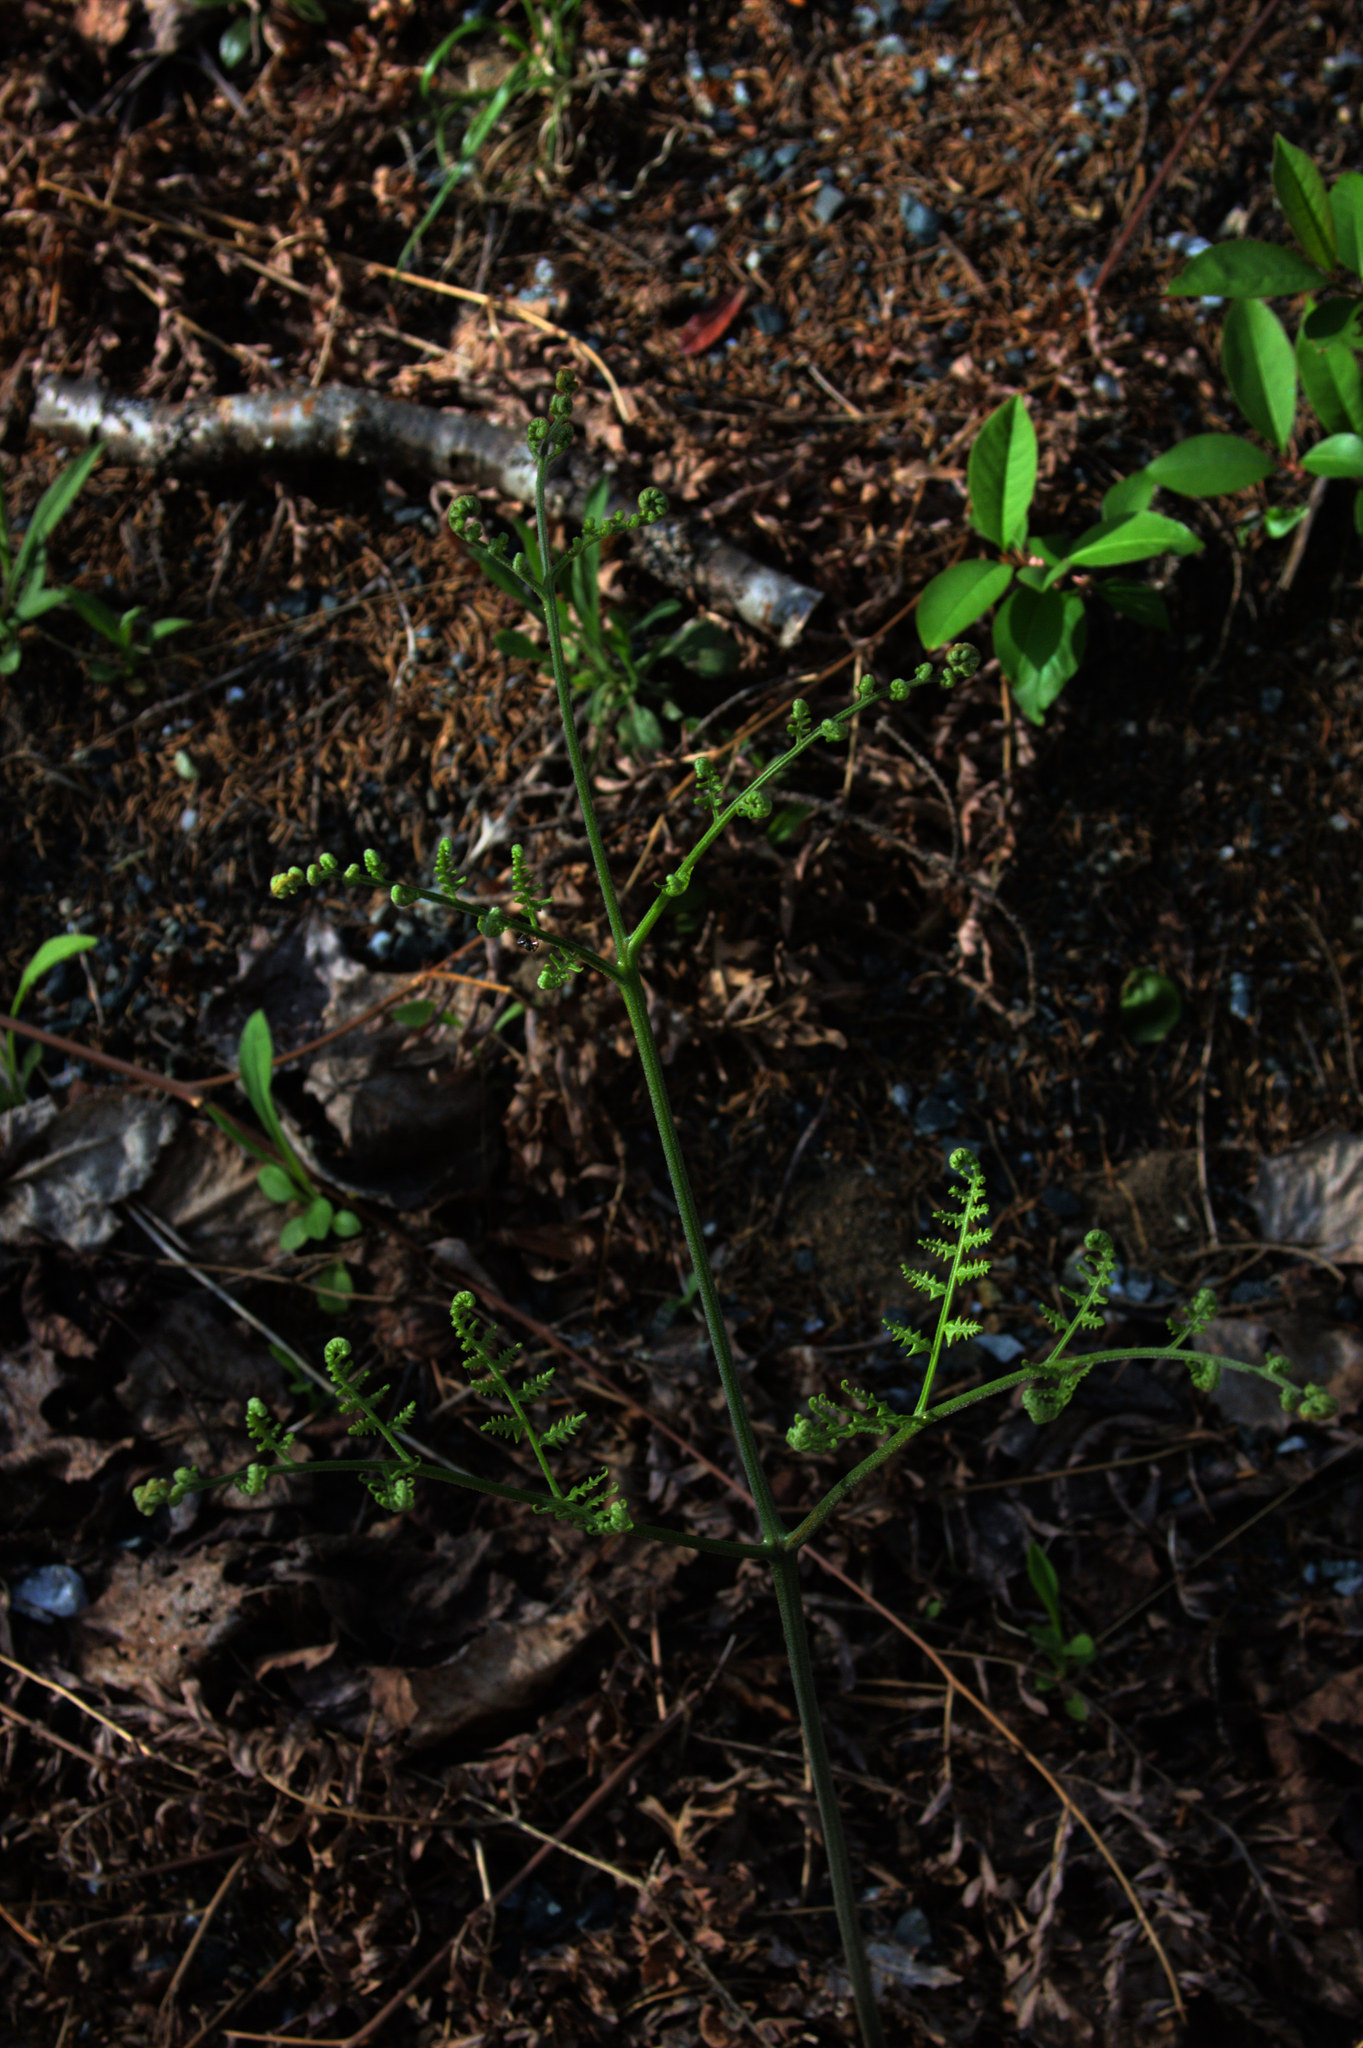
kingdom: Plantae
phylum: Tracheophyta
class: Polypodiopsida
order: Polypodiales
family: Dennstaedtiaceae
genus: Pteridium
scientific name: Pteridium aquilinum
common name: Bracken
